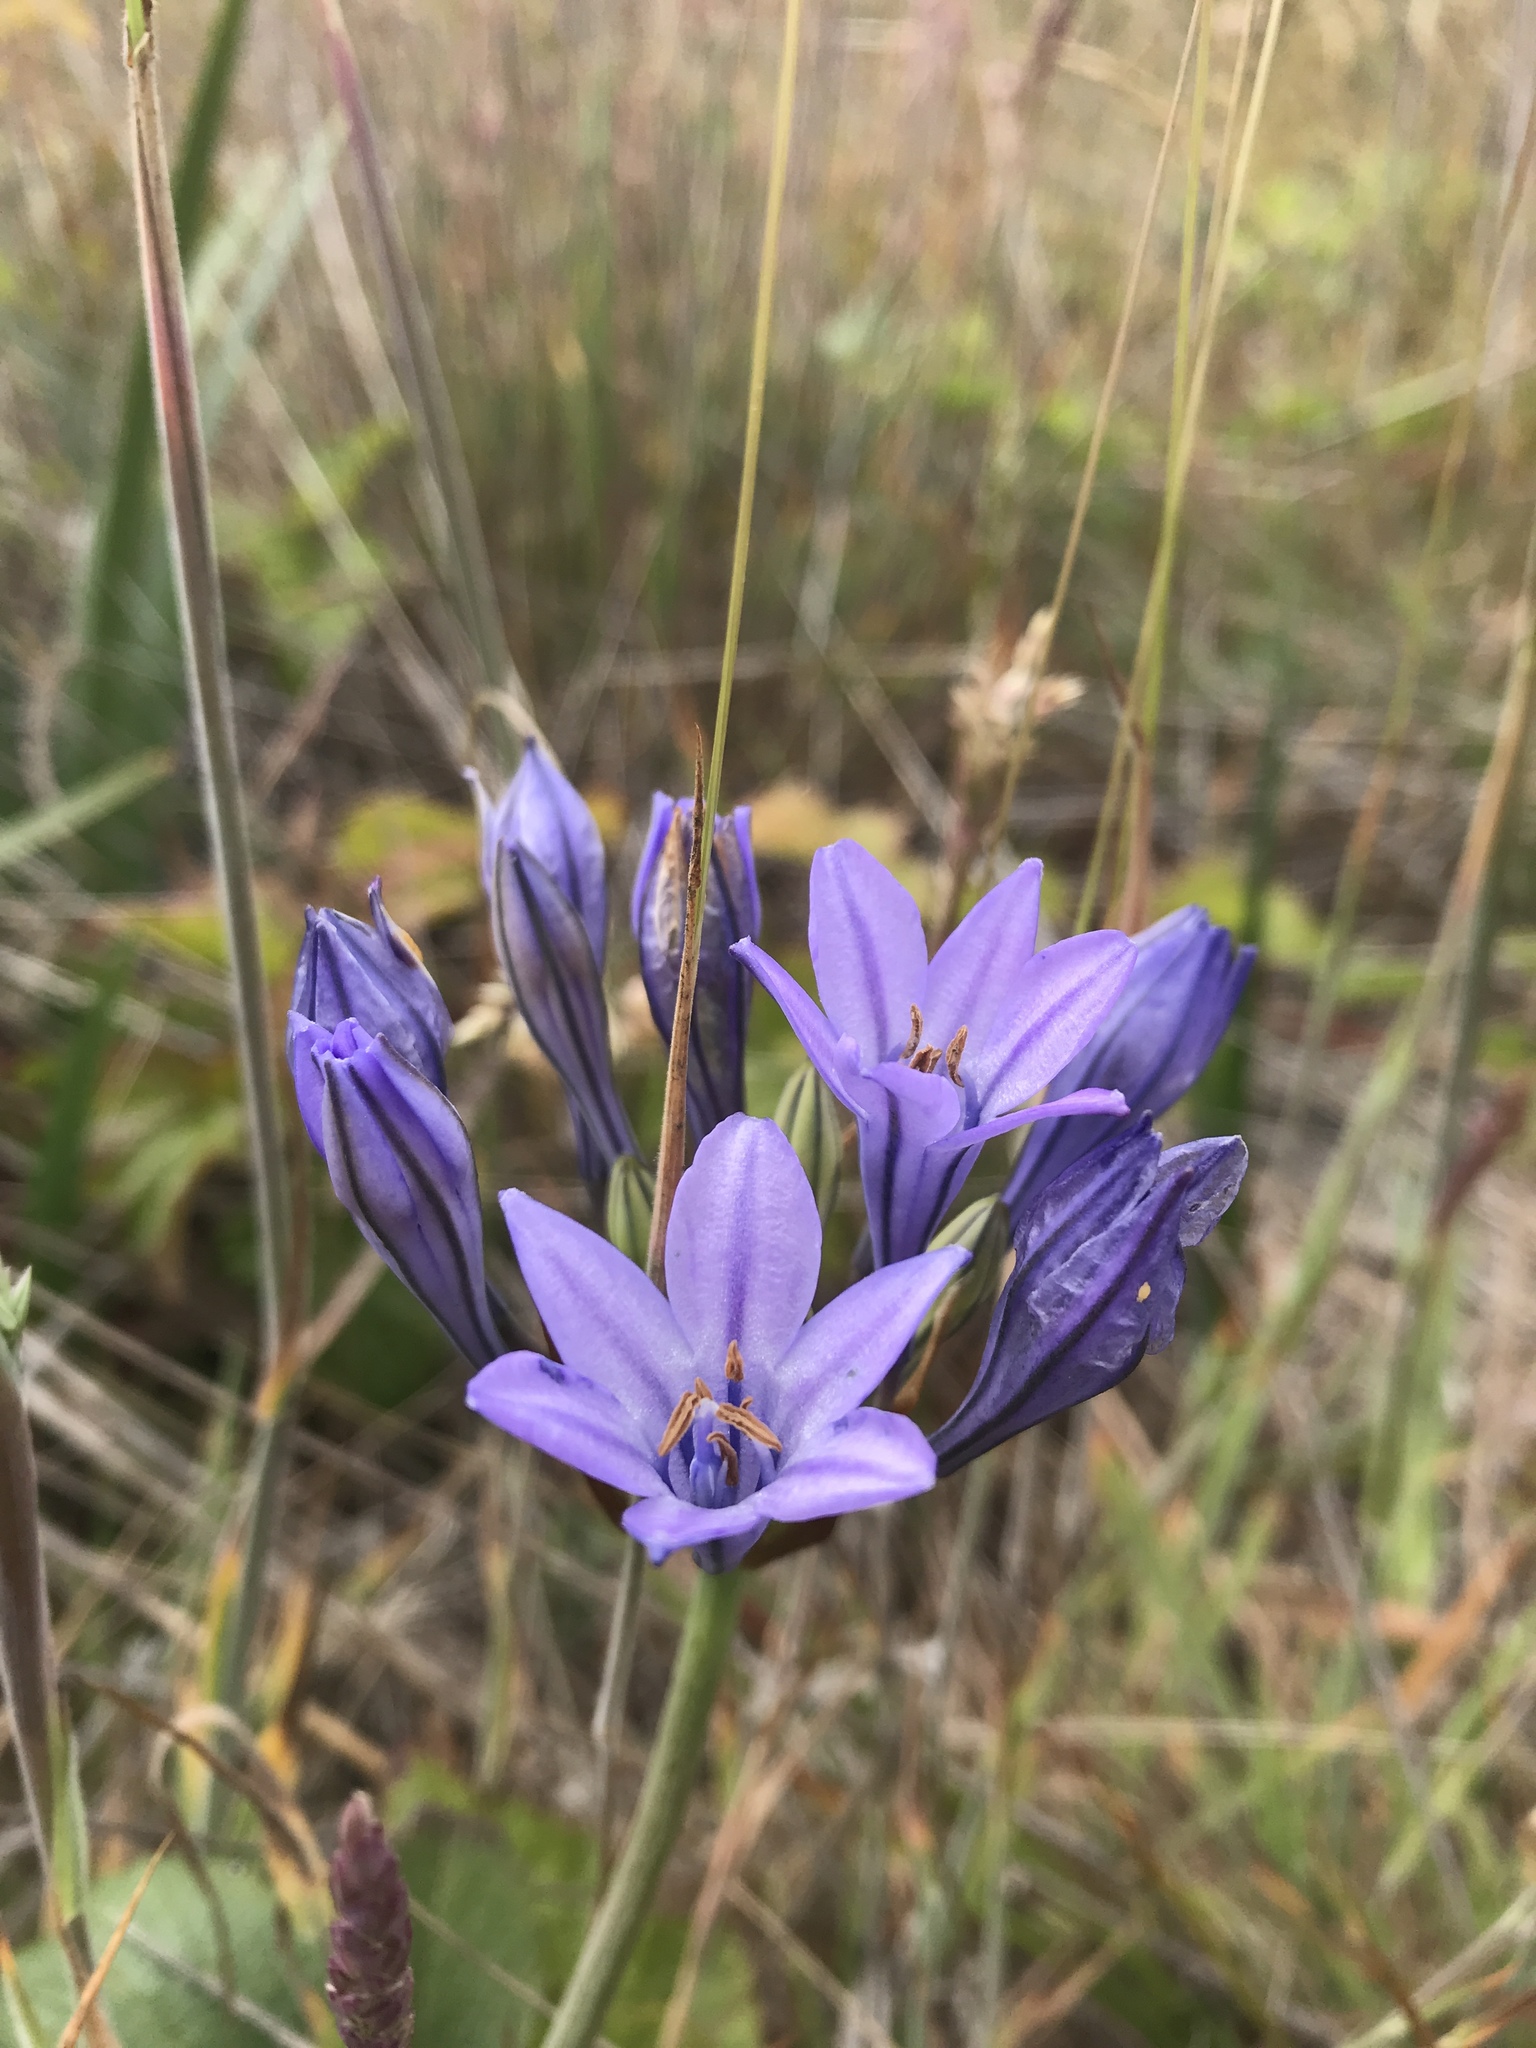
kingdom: Plantae
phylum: Tracheophyta
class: Liliopsida
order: Asparagales
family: Asparagaceae
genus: Triteleia
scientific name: Triteleia laxa
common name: Triplet-lily
